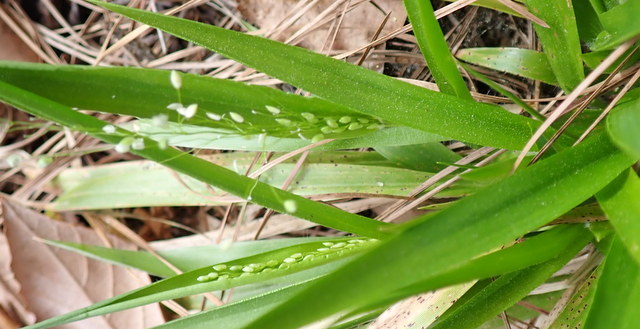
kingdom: Plantae
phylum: Tracheophyta
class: Liliopsida
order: Poales
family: Poaceae
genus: Dichanthelium
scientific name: Dichanthelium laxiflorum
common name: Soft-tuft panic grass
